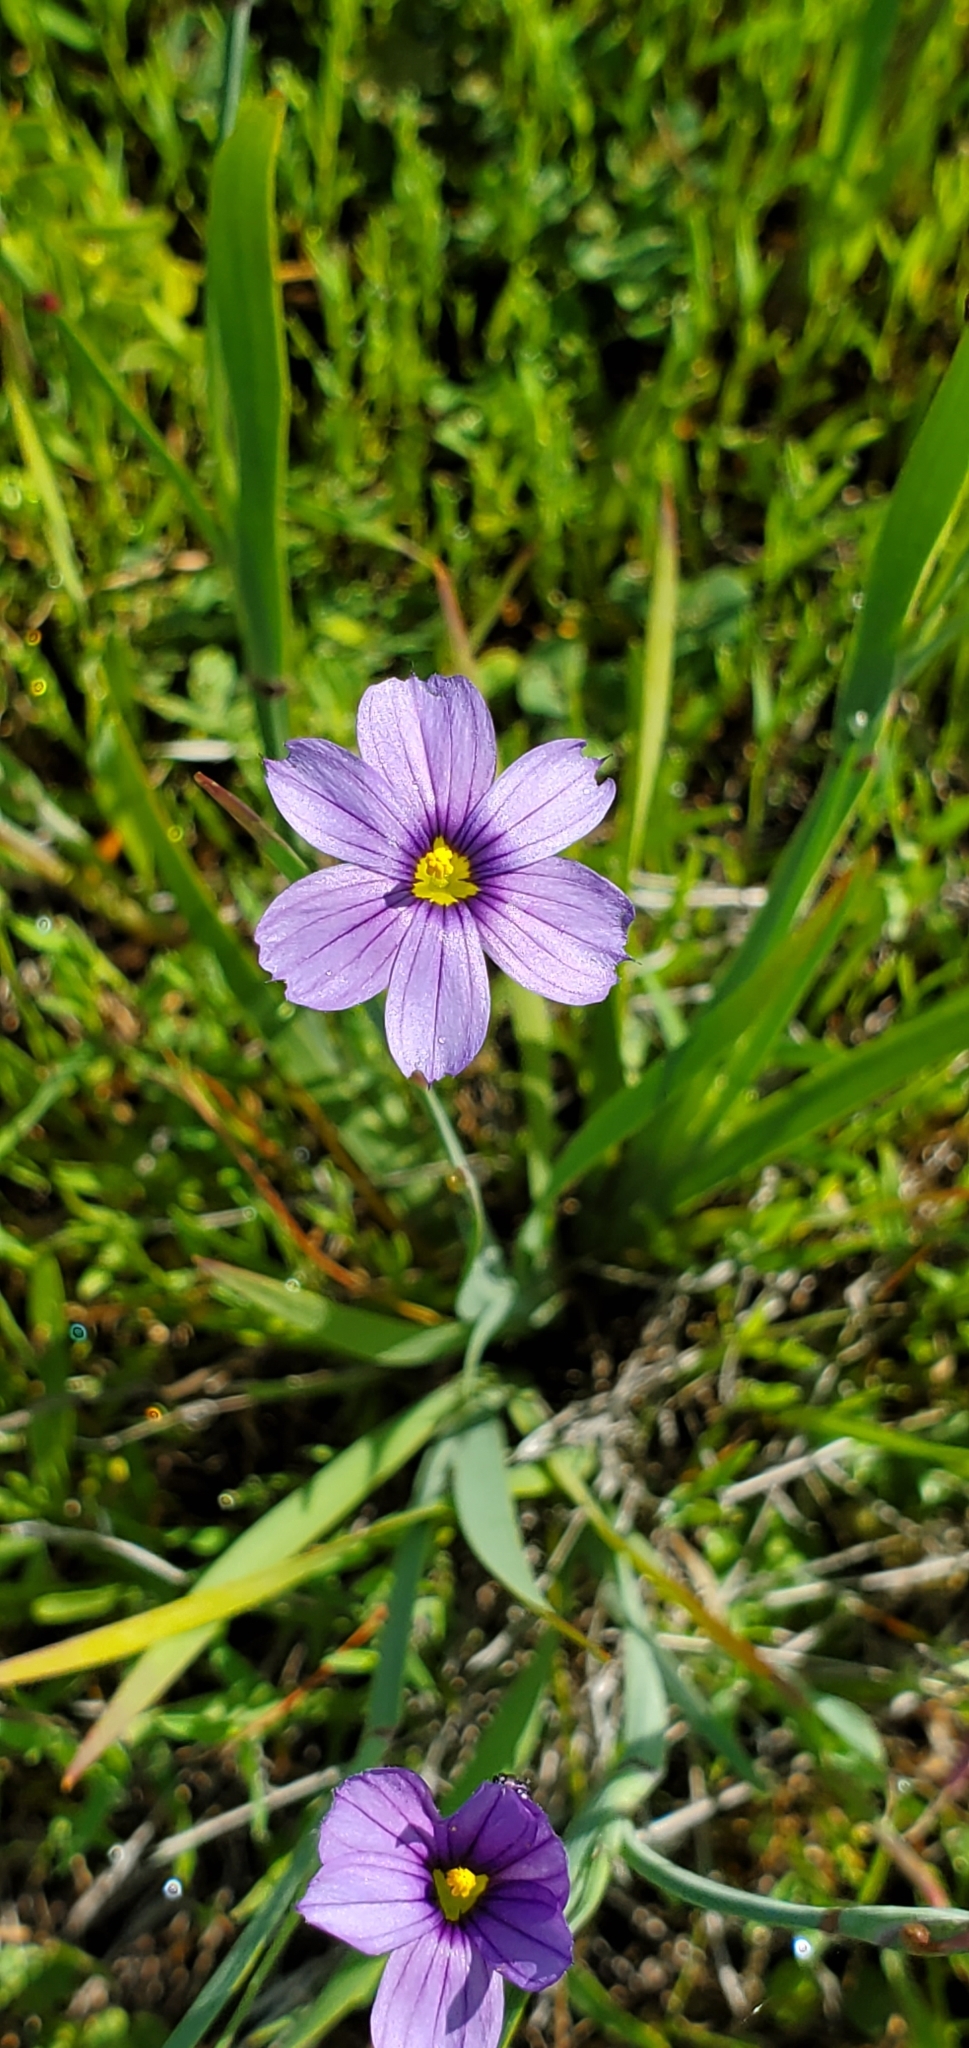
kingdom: Plantae
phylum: Tracheophyta
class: Liliopsida
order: Asparagales
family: Iridaceae
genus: Sisyrinchium
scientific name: Sisyrinchium bellum
